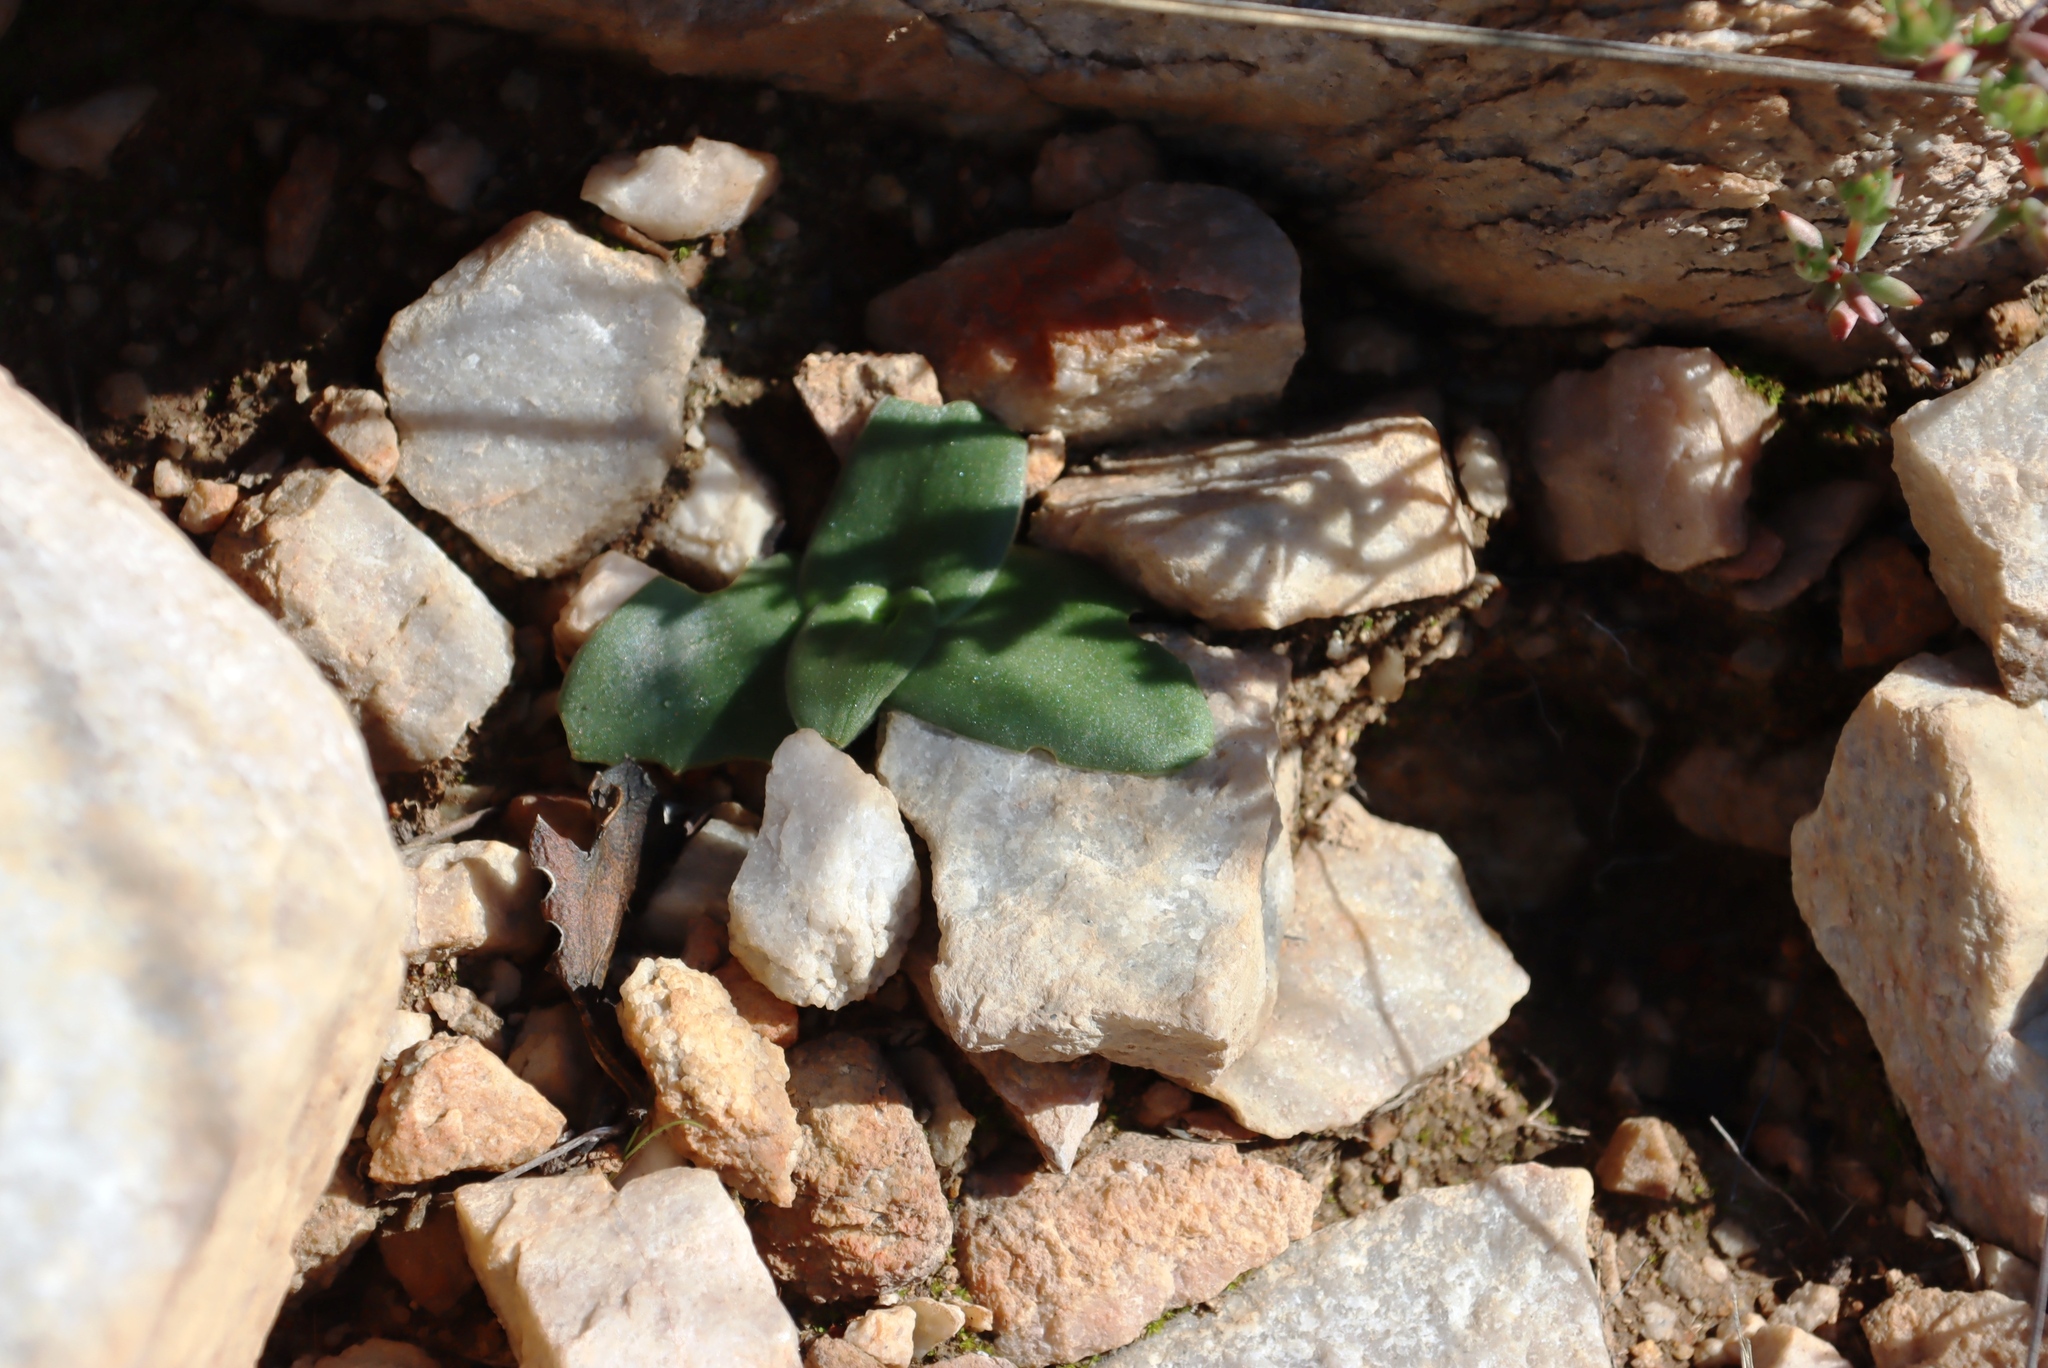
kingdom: Plantae
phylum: Tracheophyta
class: Liliopsida
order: Asparagales
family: Asparagaceae
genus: Ornithogalum
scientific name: Ornithogalum dubium
